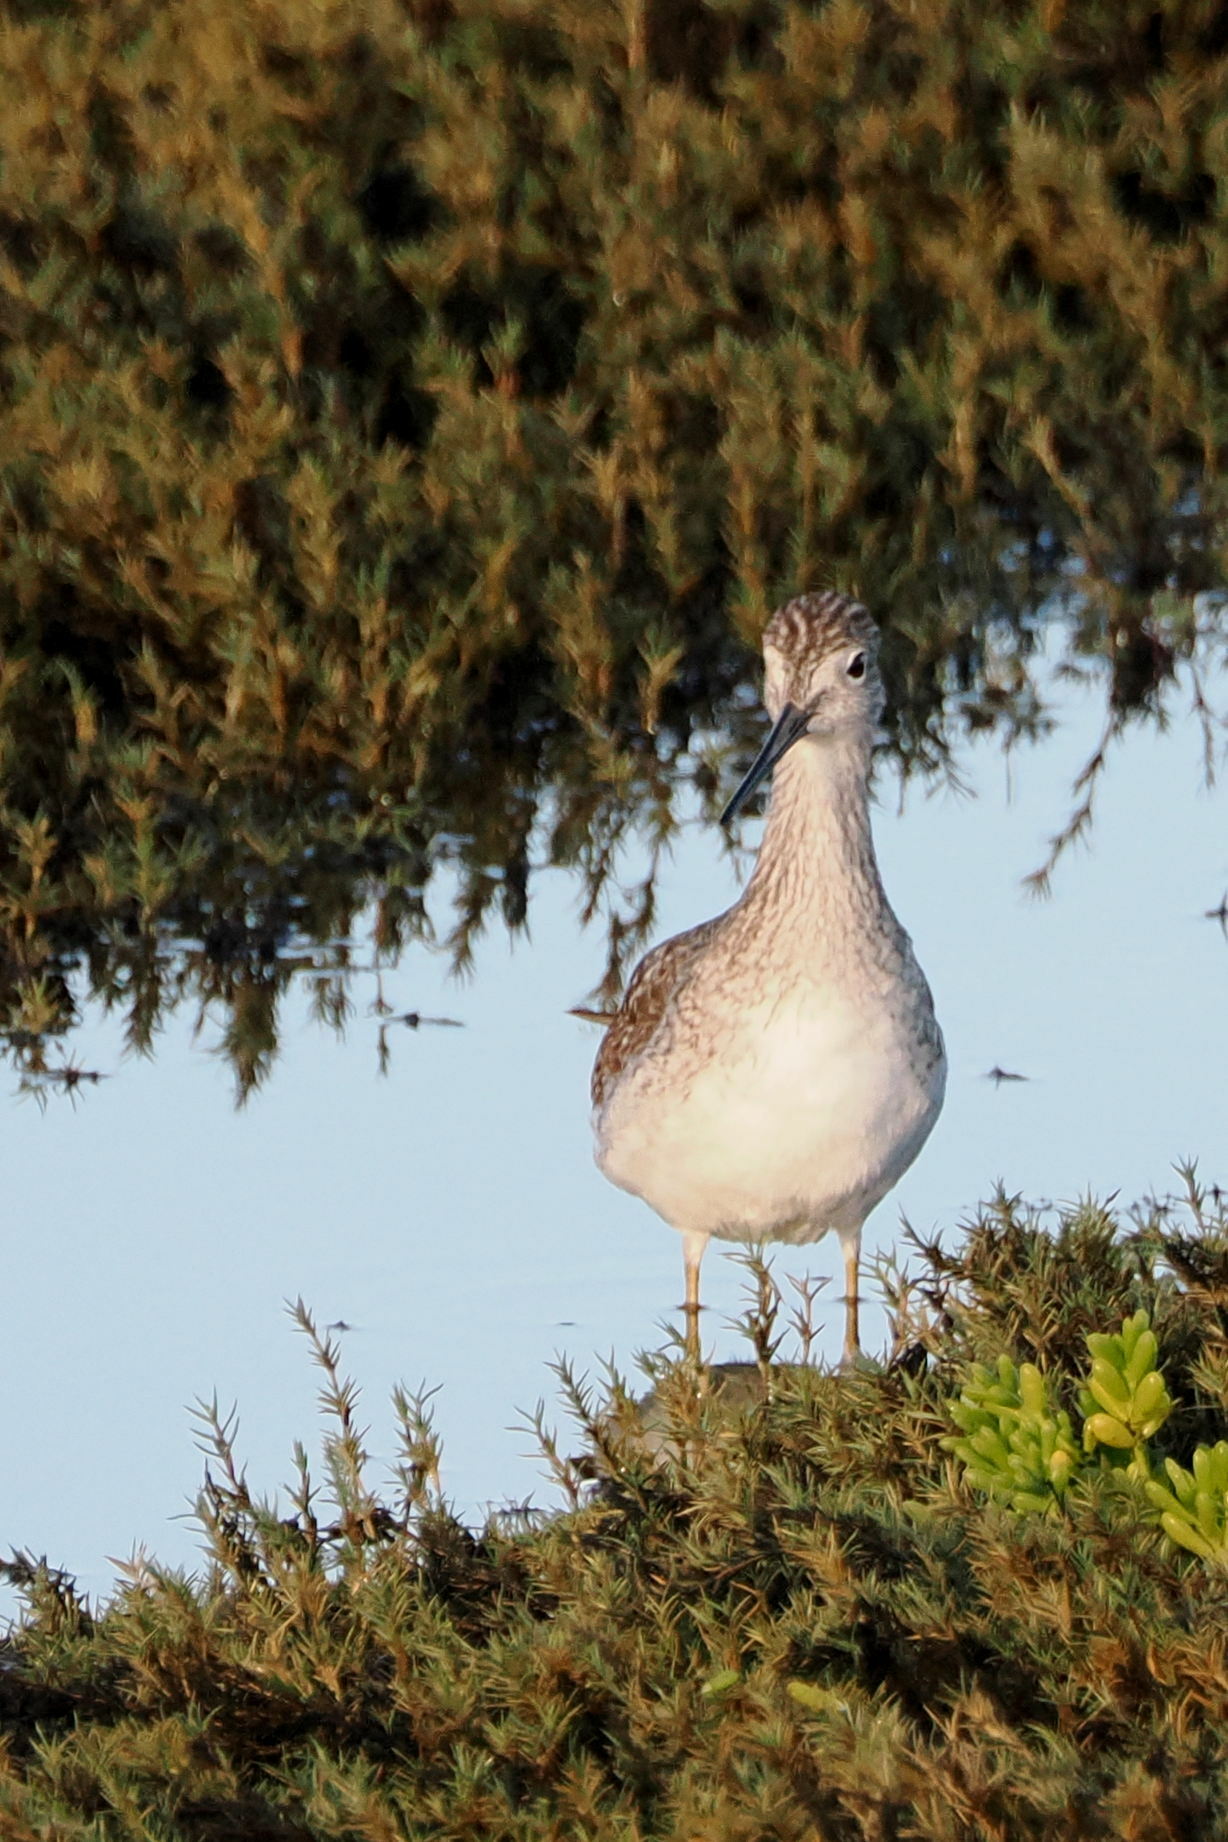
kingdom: Animalia
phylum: Chordata
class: Aves
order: Charadriiformes
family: Scolopacidae
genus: Tringa
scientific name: Tringa melanoleuca
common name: Greater yellowlegs
